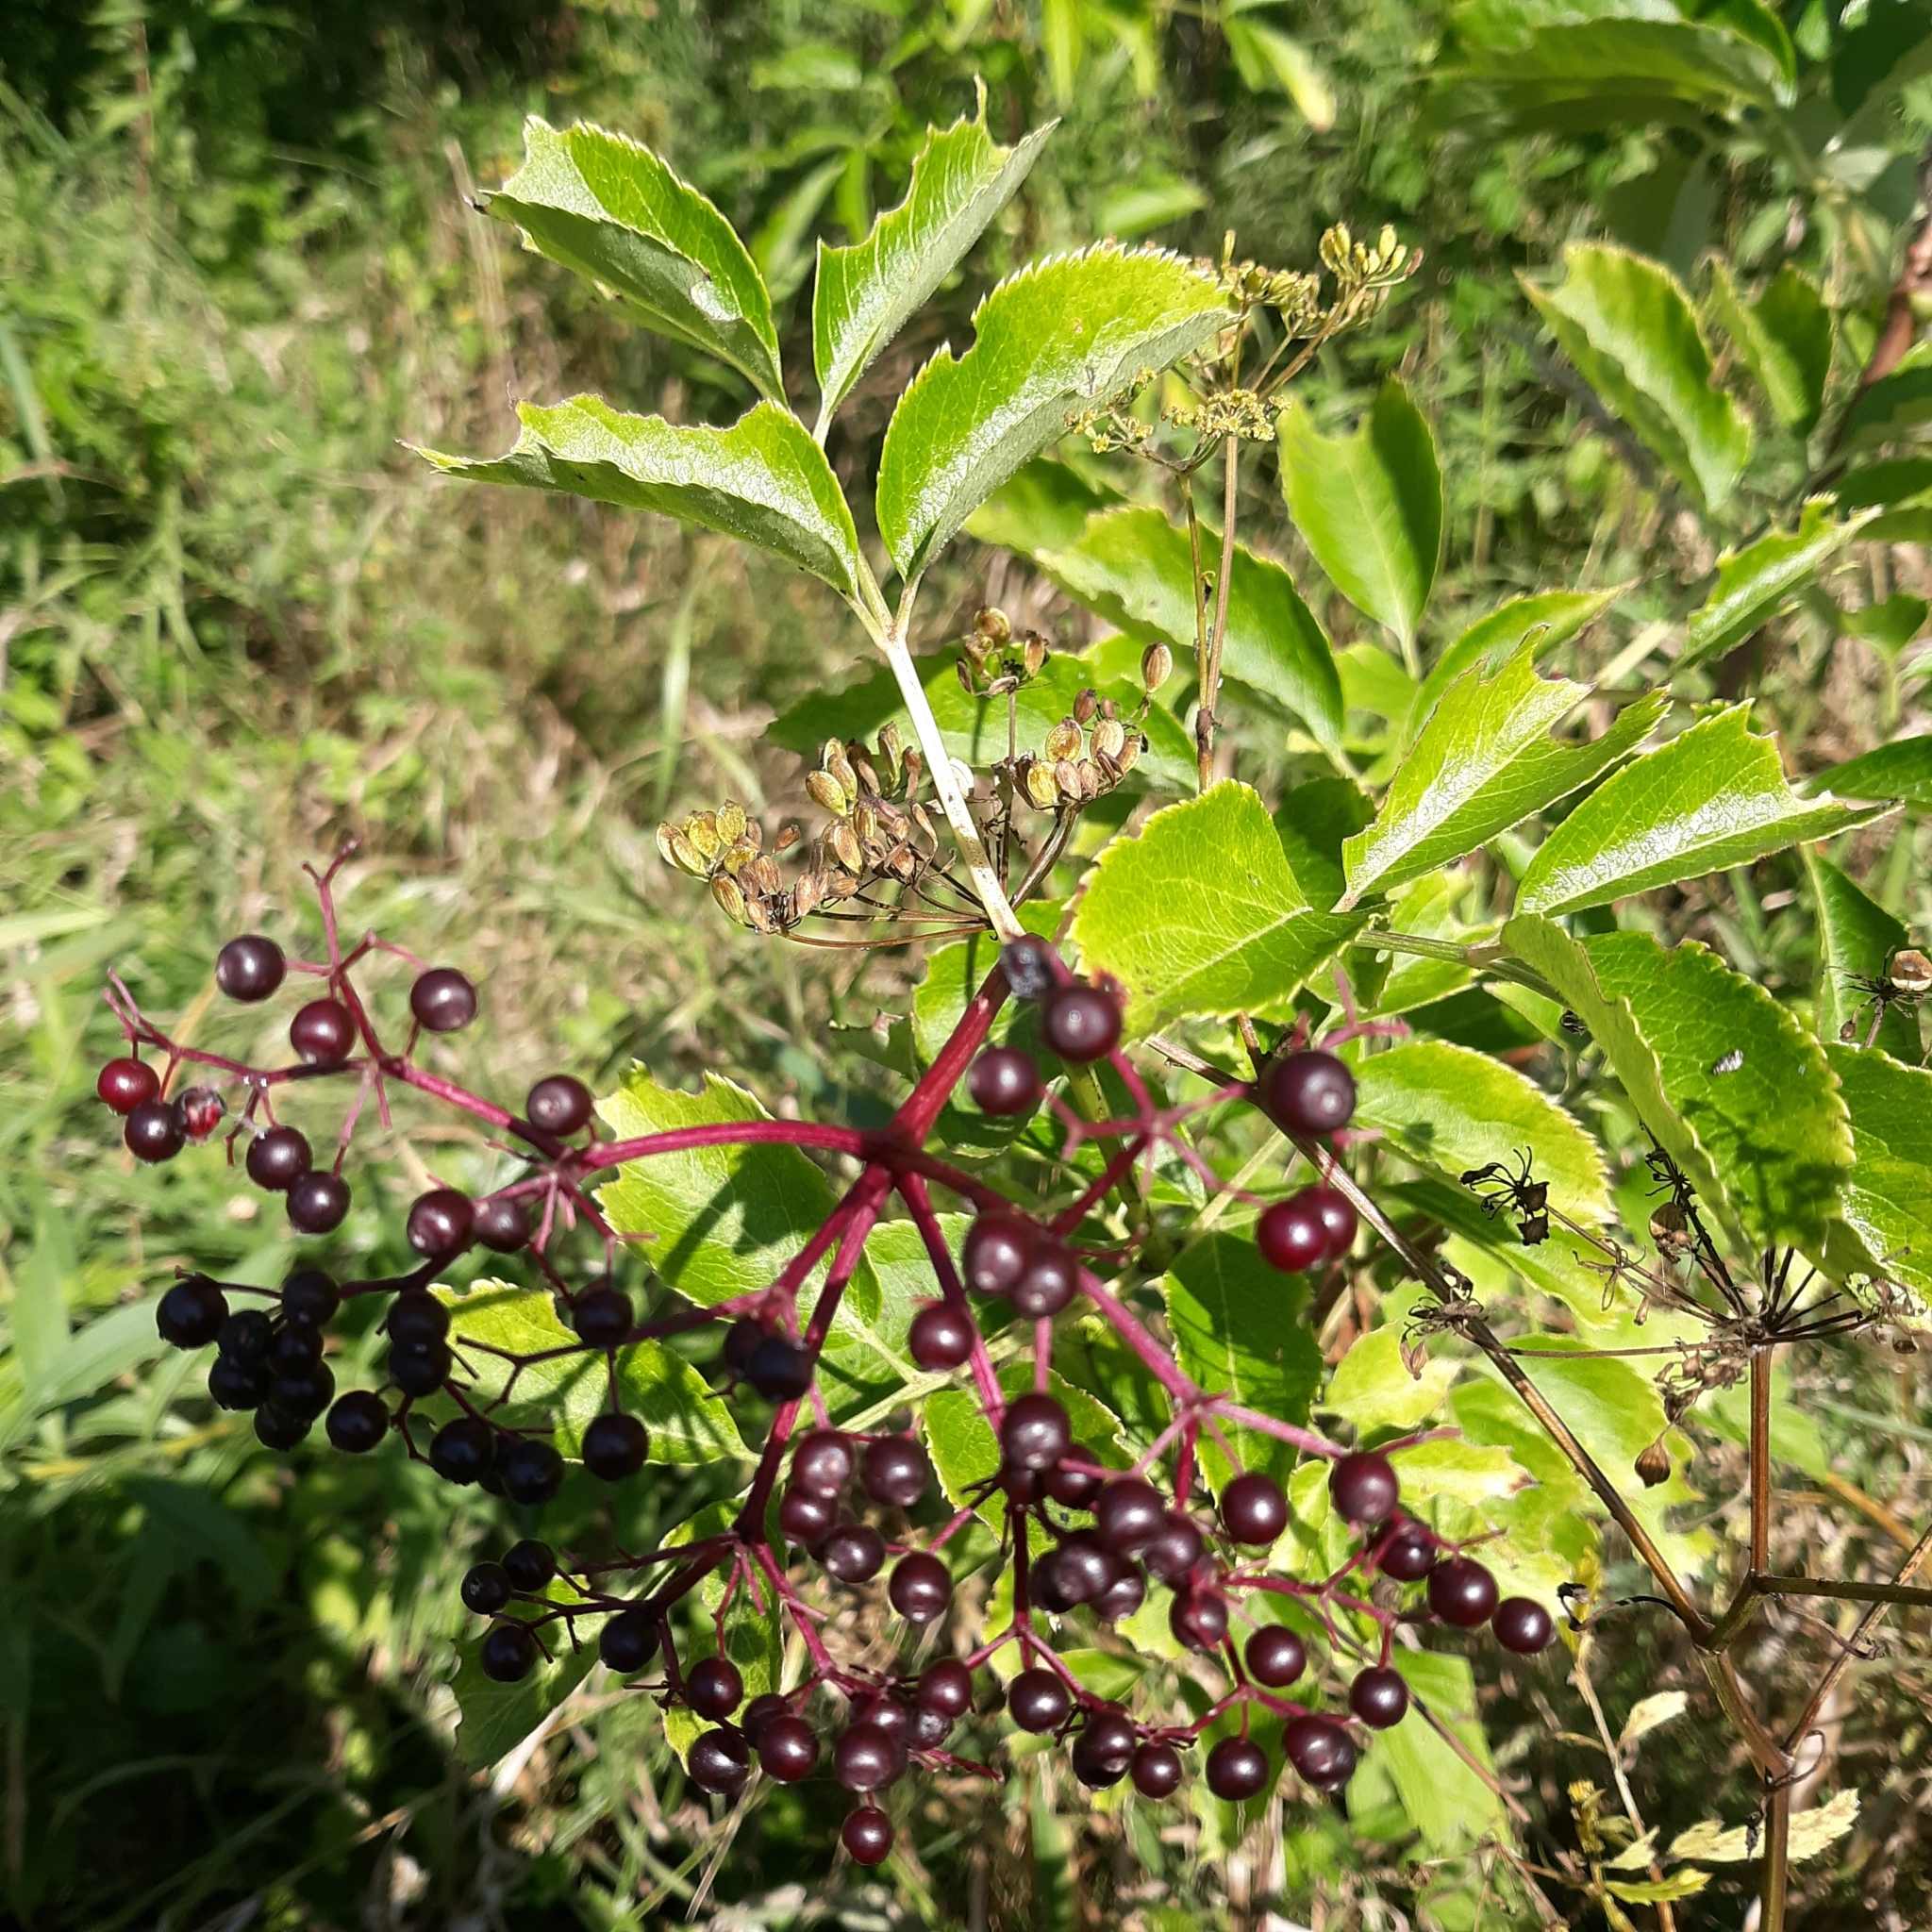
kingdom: Plantae
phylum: Tracheophyta
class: Magnoliopsida
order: Dipsacales
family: Viburnaceae
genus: Sambucus
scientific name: Sambucus canadensis
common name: American elder
